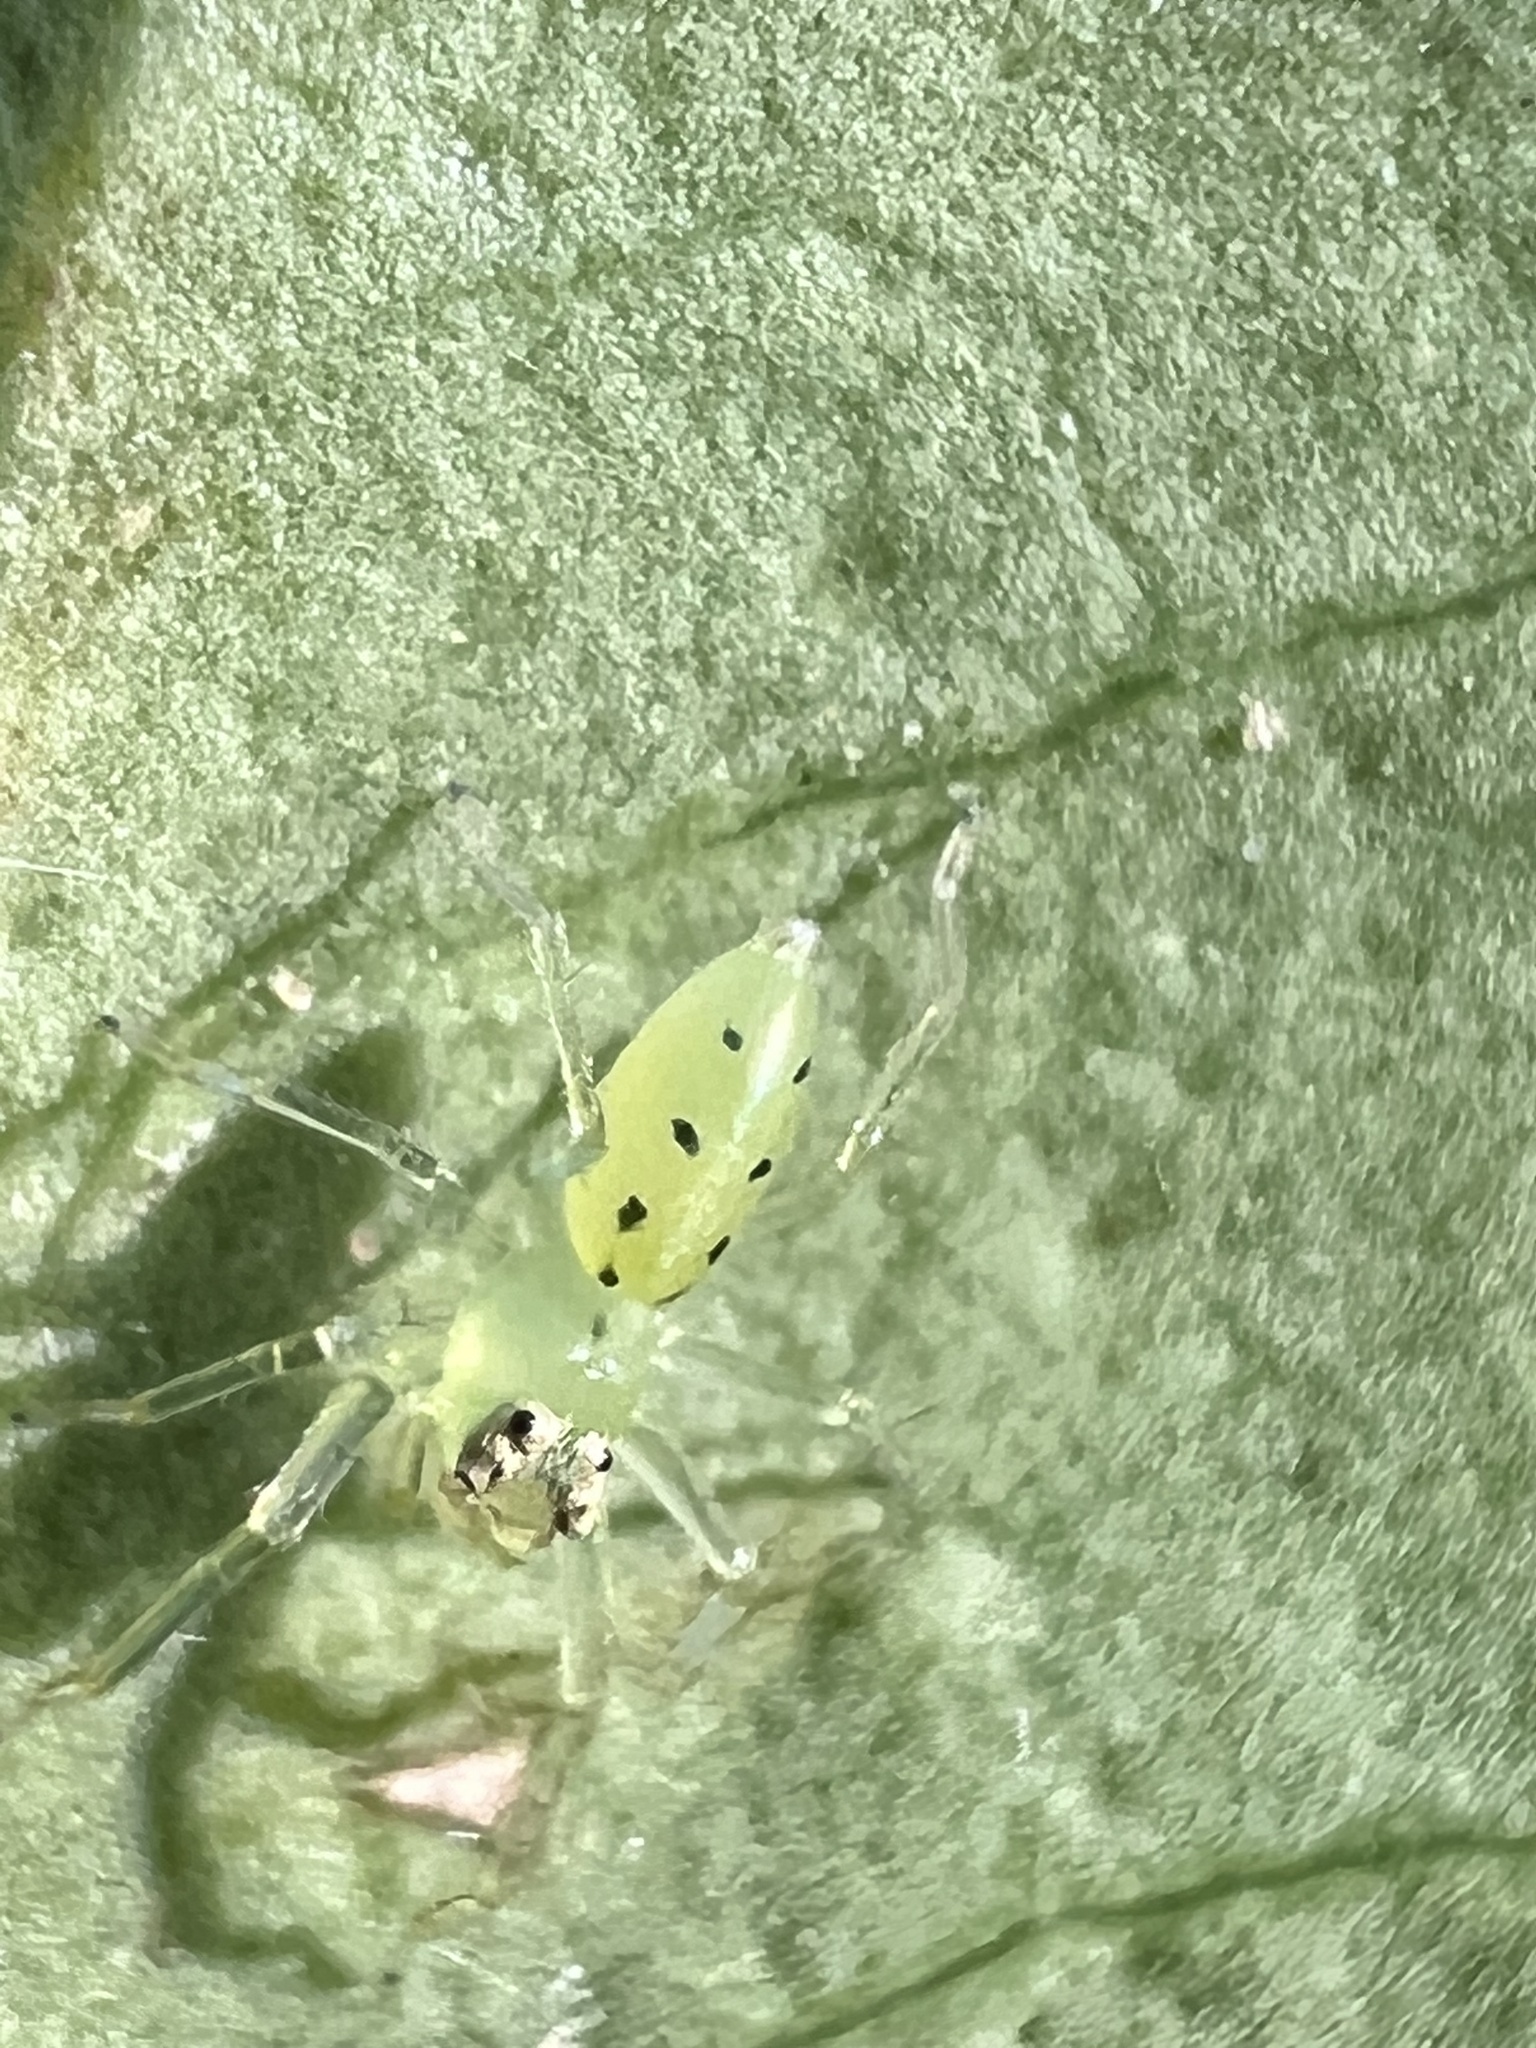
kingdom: Animalia
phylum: Arthropoda
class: Arachnida
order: Araneae
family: Salticidae
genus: Lyssomanes
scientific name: Lyssomanes viridis
